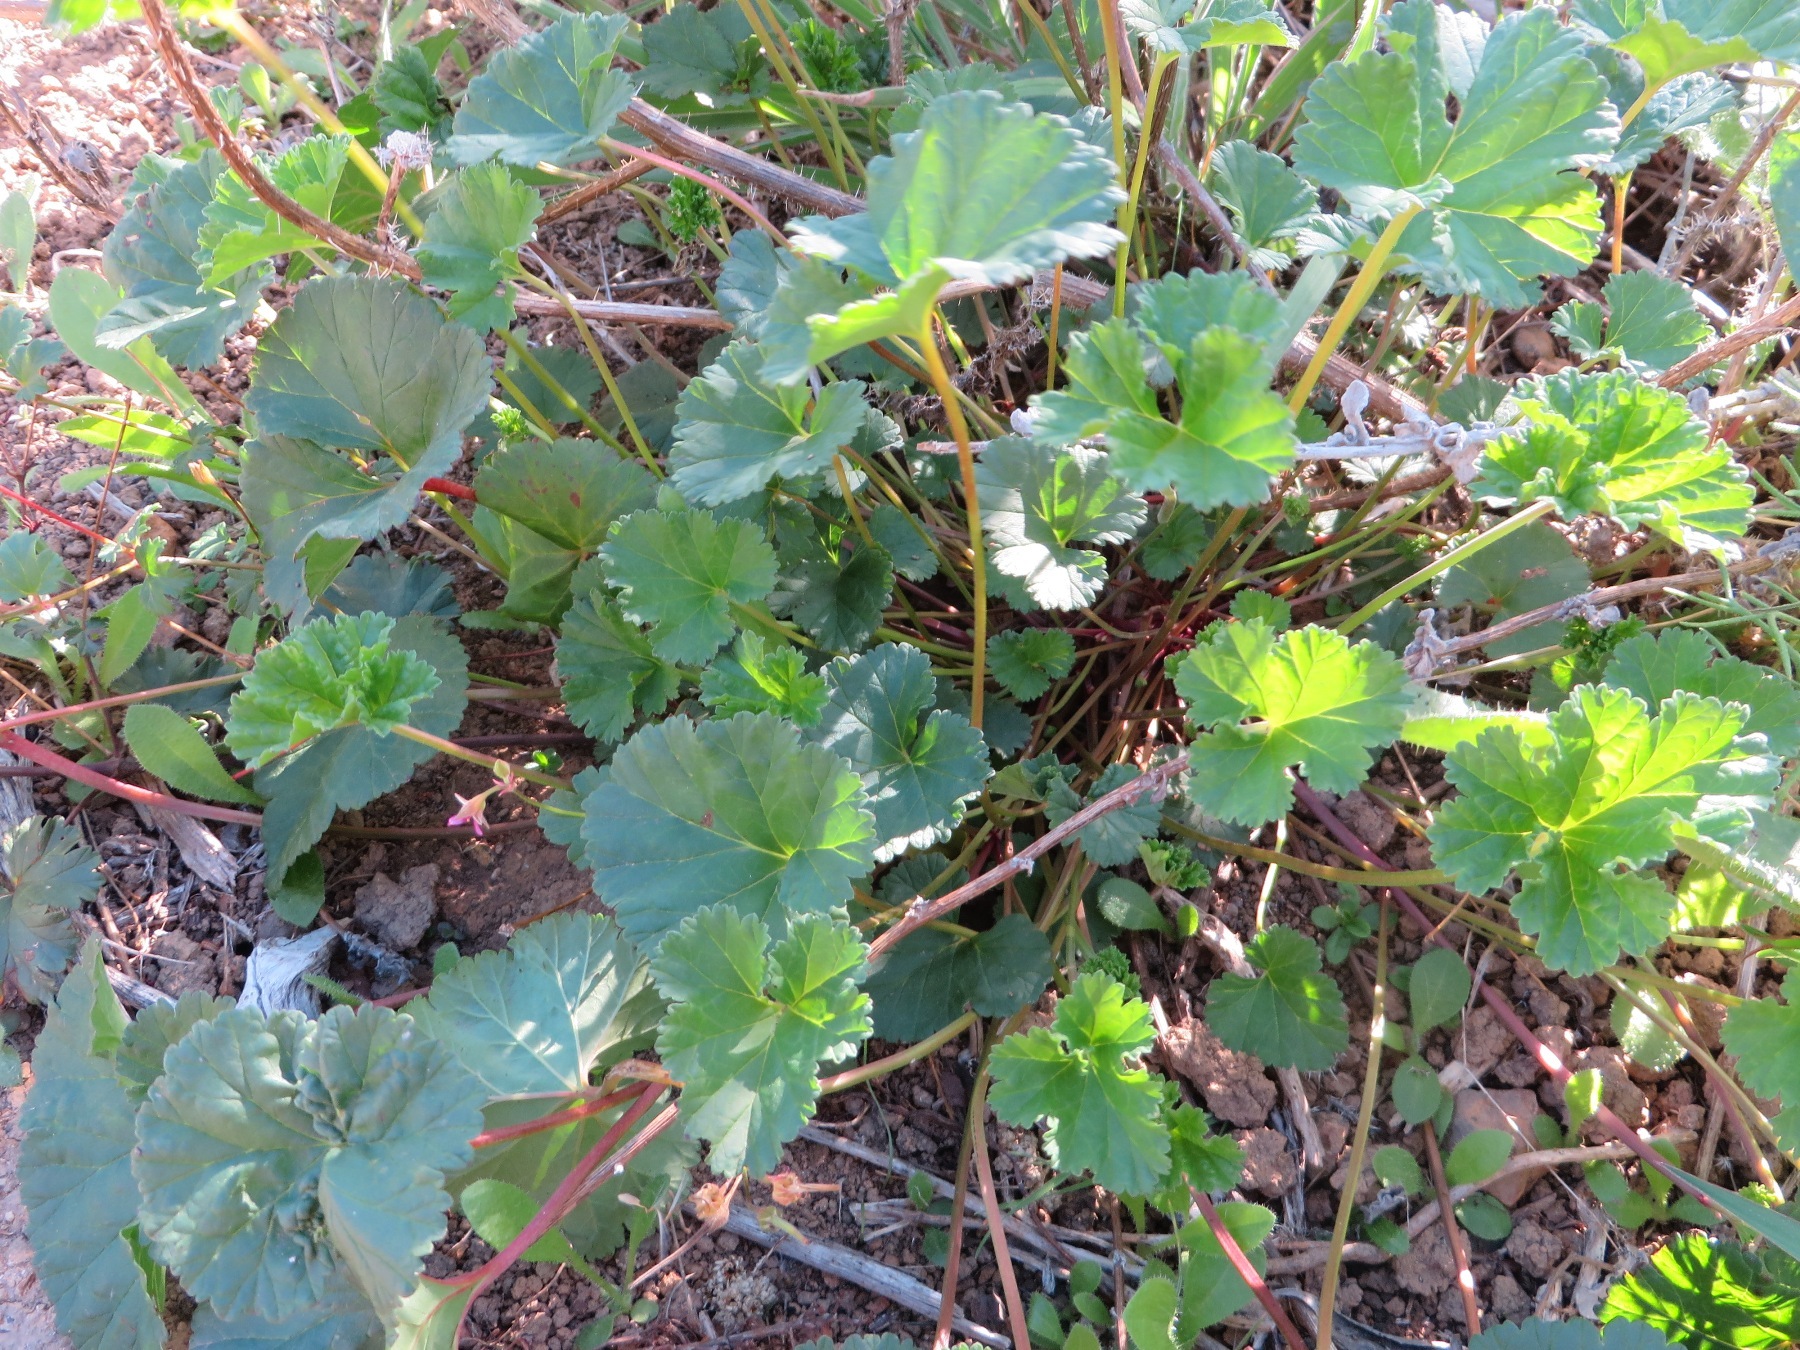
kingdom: Plantae
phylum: Tracheophyta
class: Magnoliopsida
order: Geraniales
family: Geraniaceae
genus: Pelargonium
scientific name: Pelargonium grossularioides
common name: Gooseberry geranium
